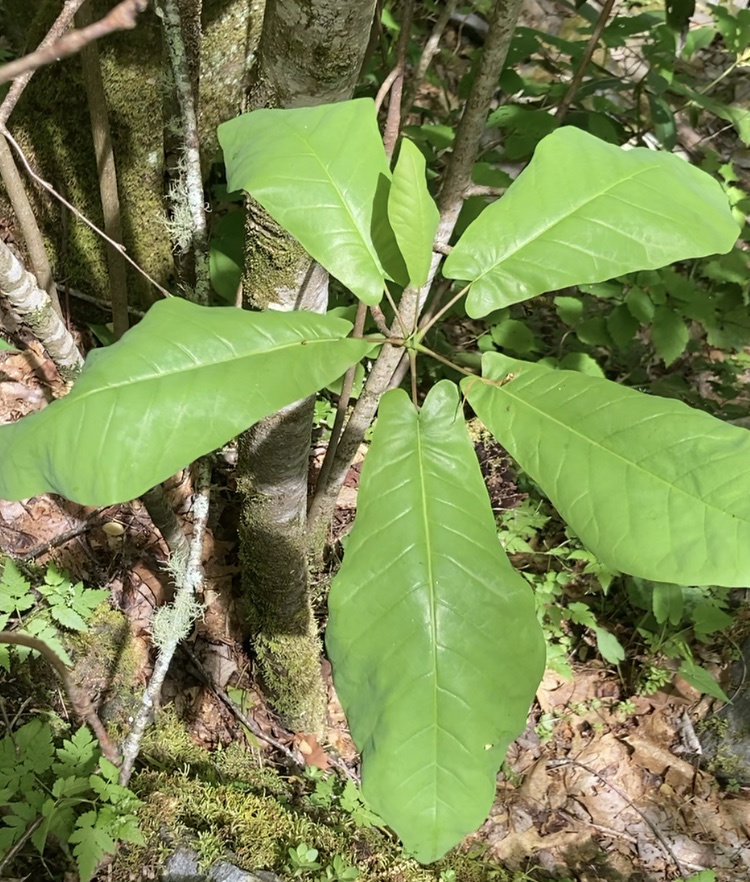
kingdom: Plantae
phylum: Tracheophyta
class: Magnoliopsida
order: Magnoliales
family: Magnoliaceae
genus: Magnolia
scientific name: Magnolia fraseri
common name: Fraser's magnolia
